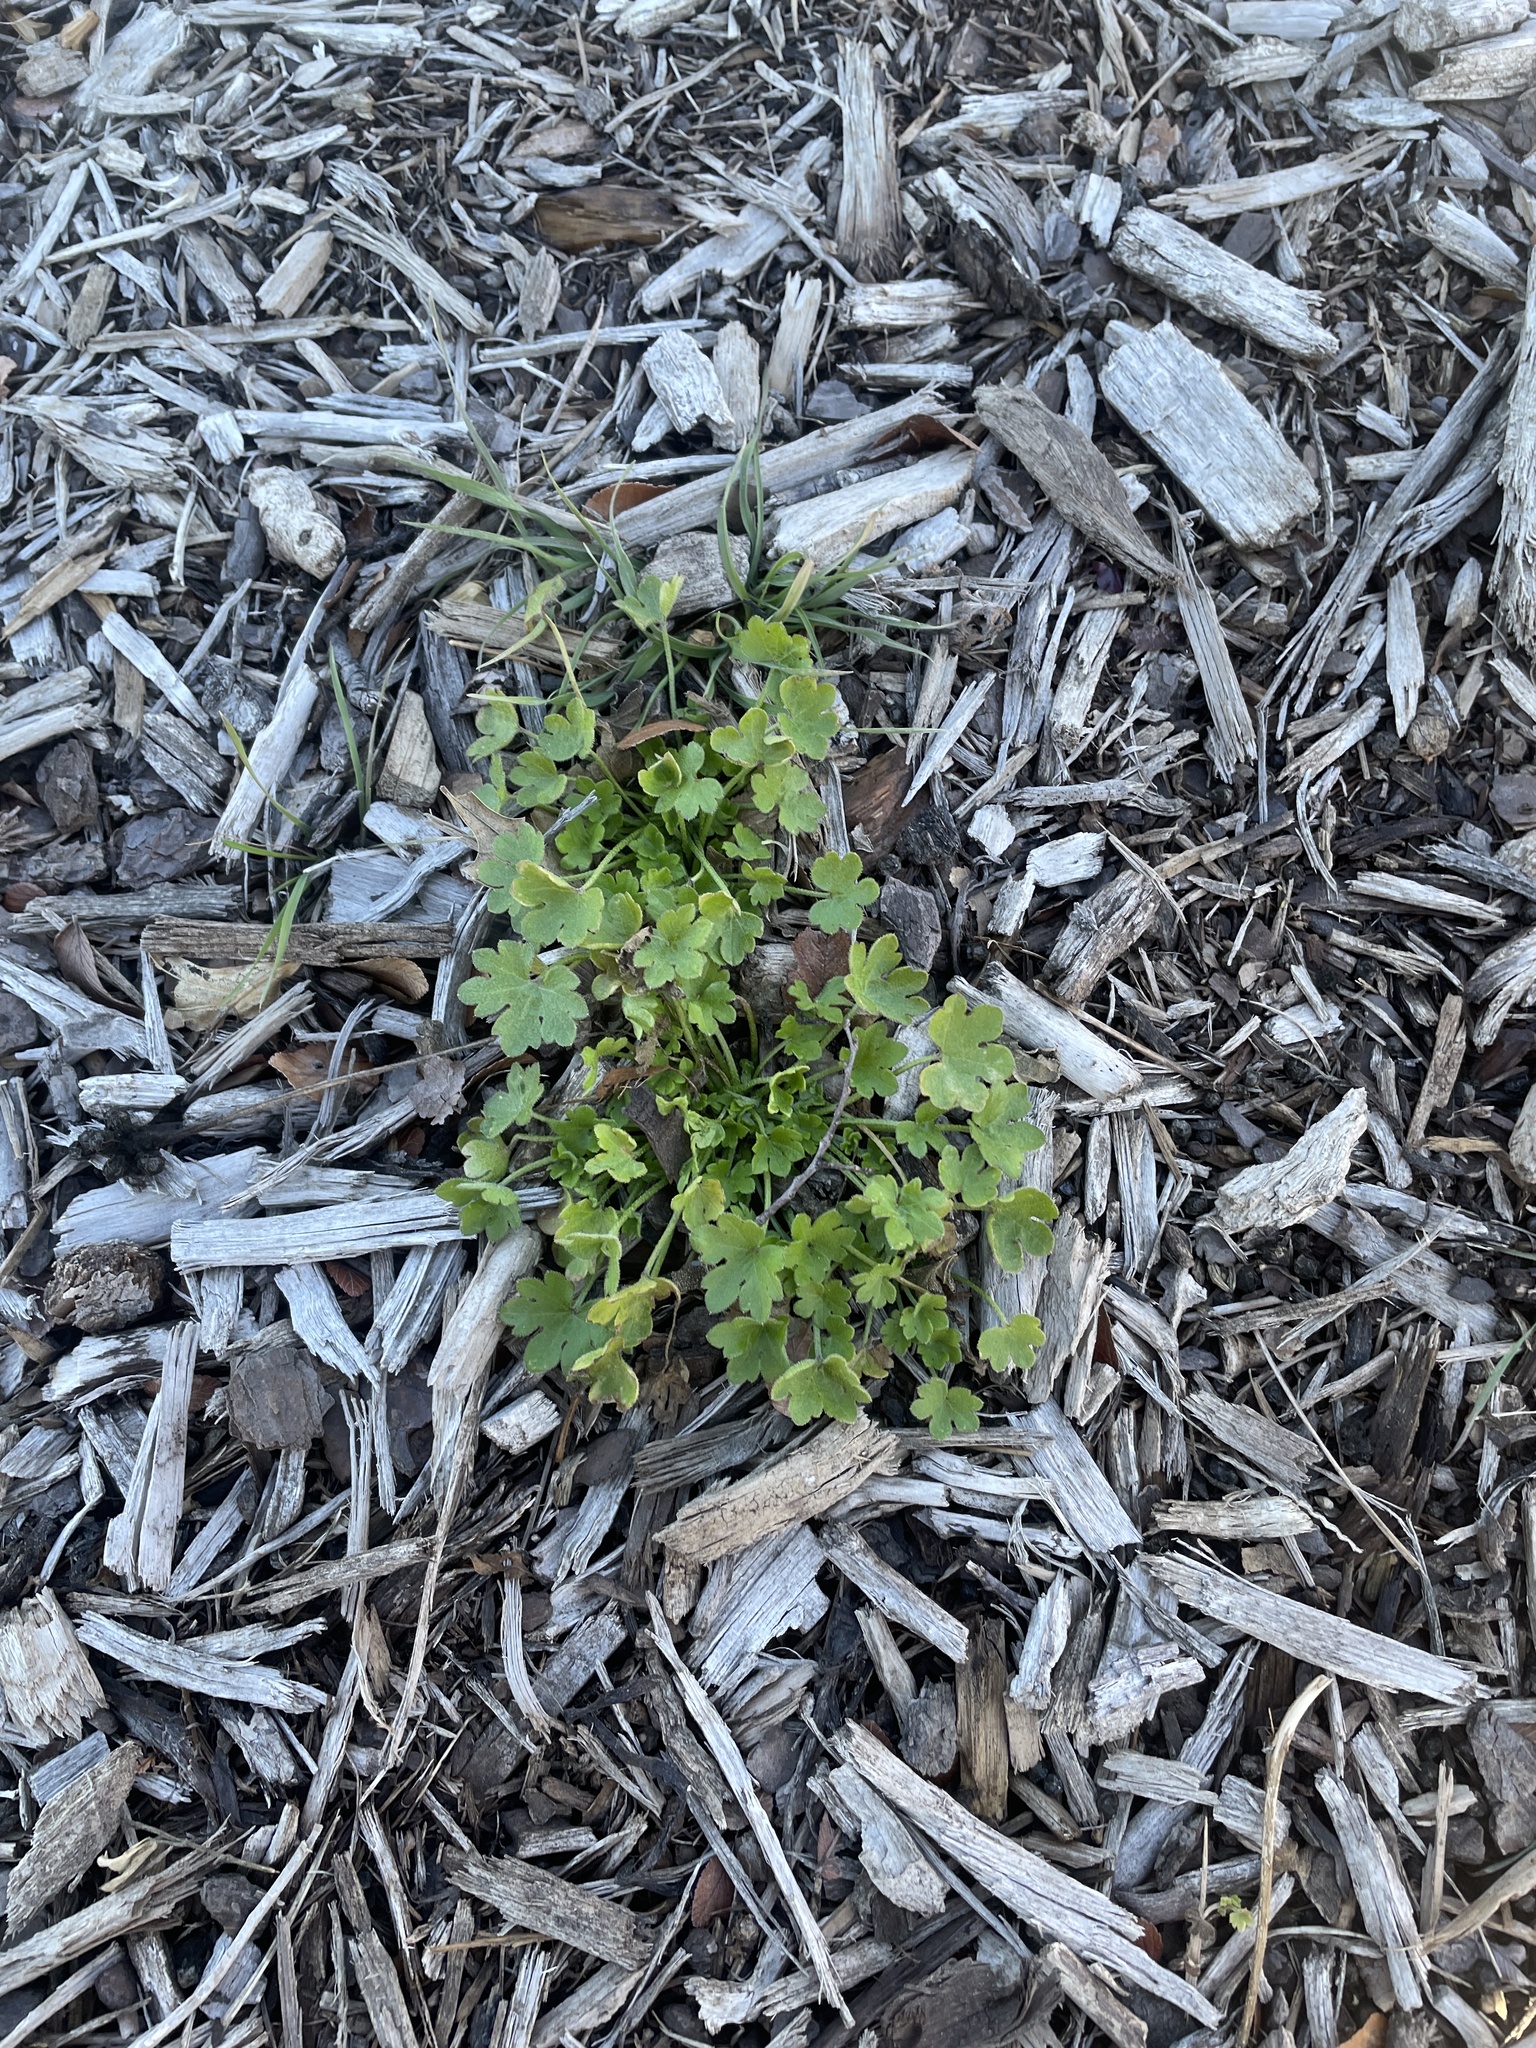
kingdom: Plantae
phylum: Tracheophyta
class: Magnoliopsida
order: Apiales
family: Apiaceae
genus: Bowlesia
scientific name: Bowlesia incana
